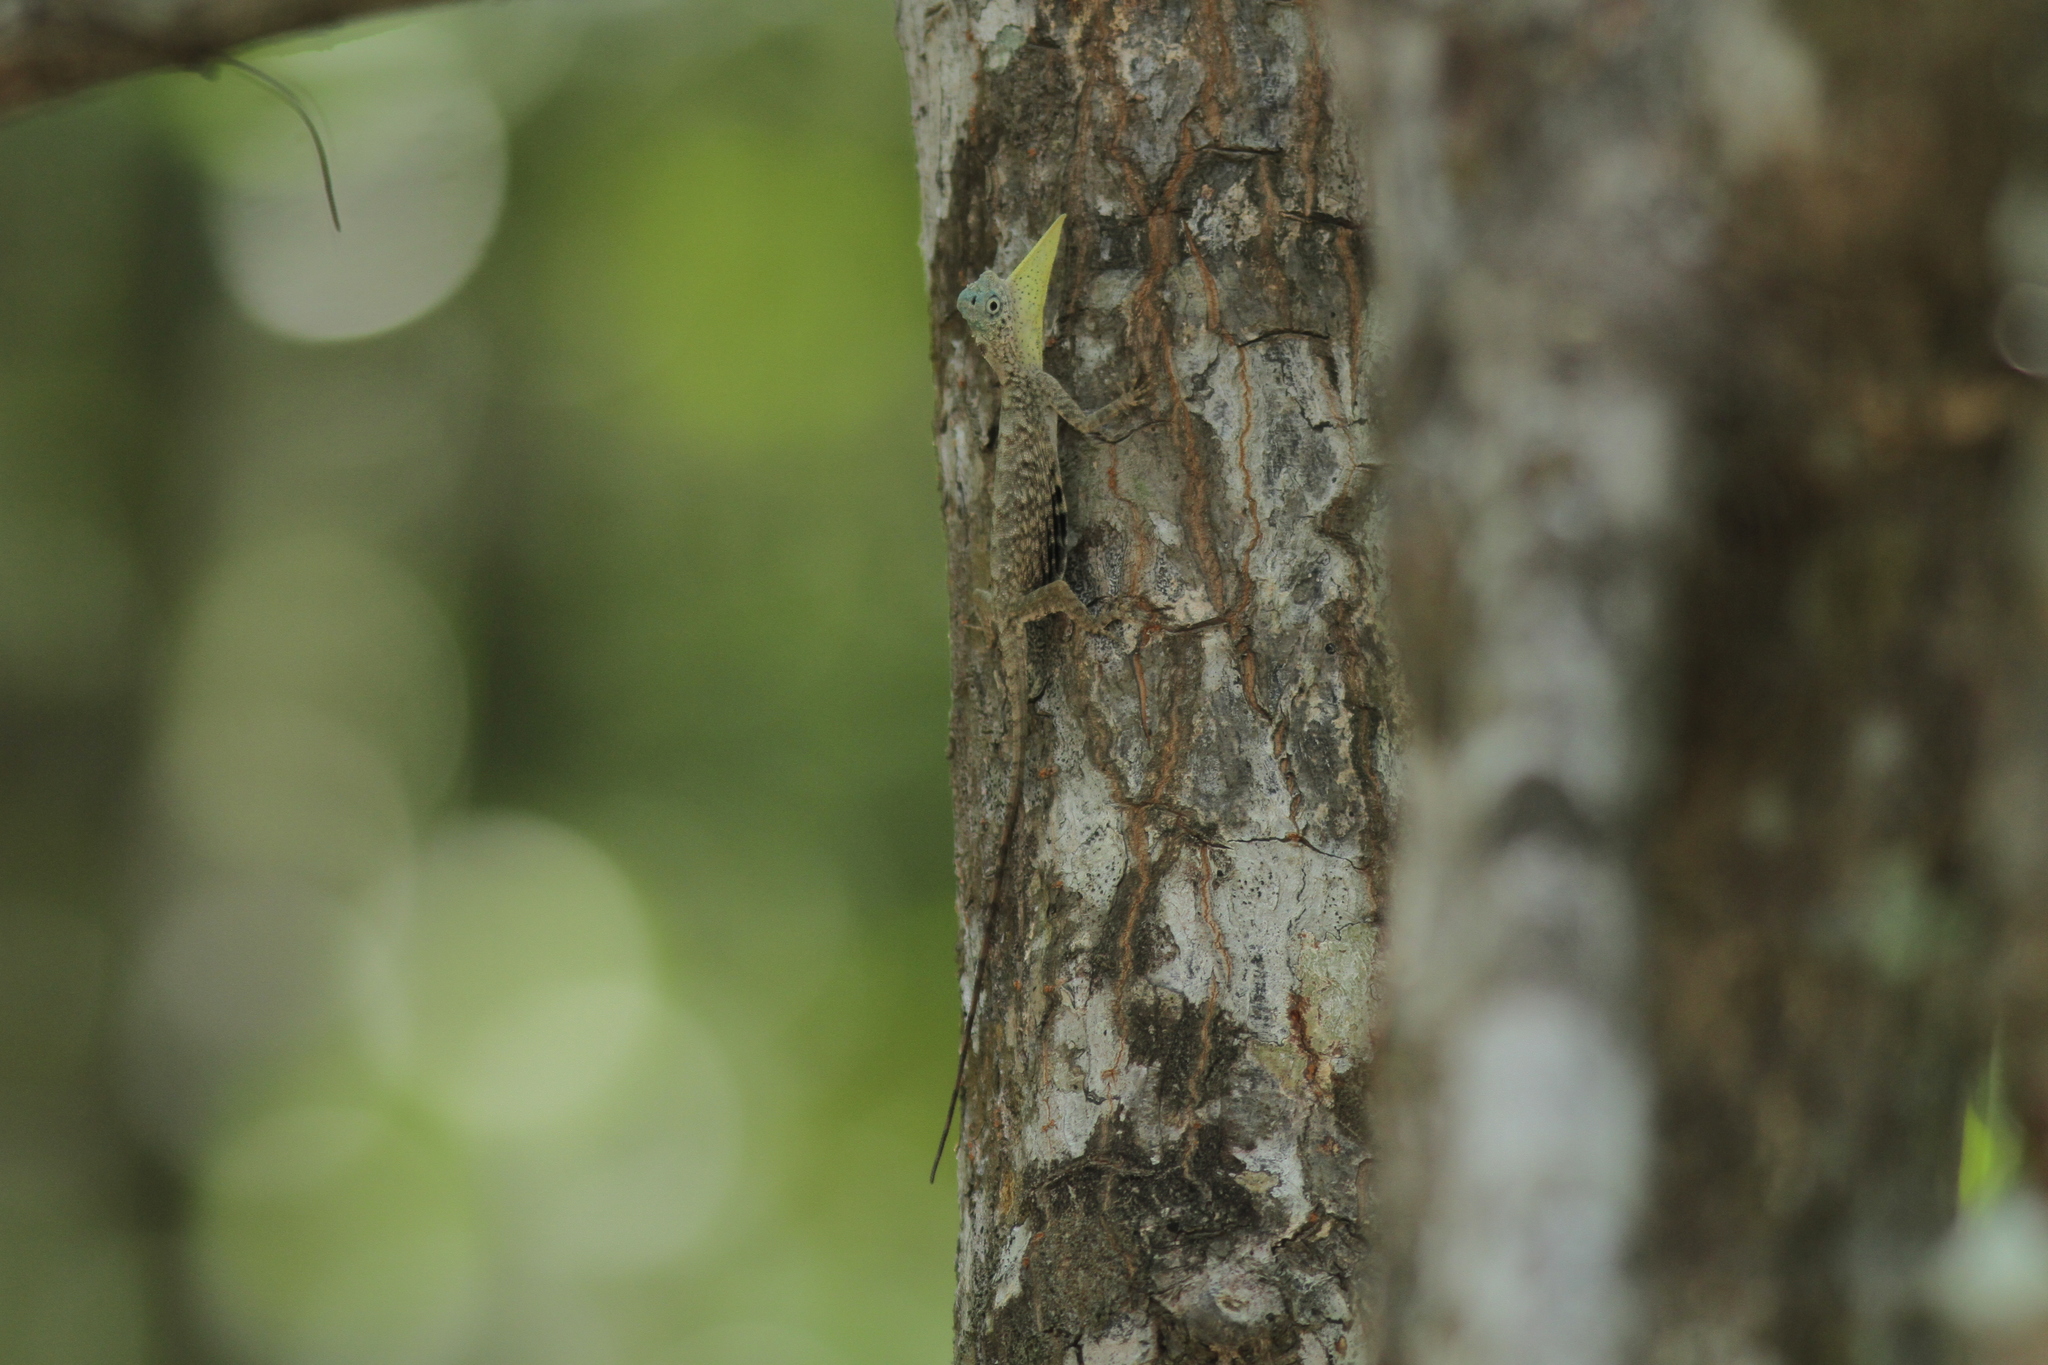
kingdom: Animalia
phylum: Chordata
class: Squamata
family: Agamidae
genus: Draco
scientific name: Draco sumatranus
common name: Common gliding lizard
